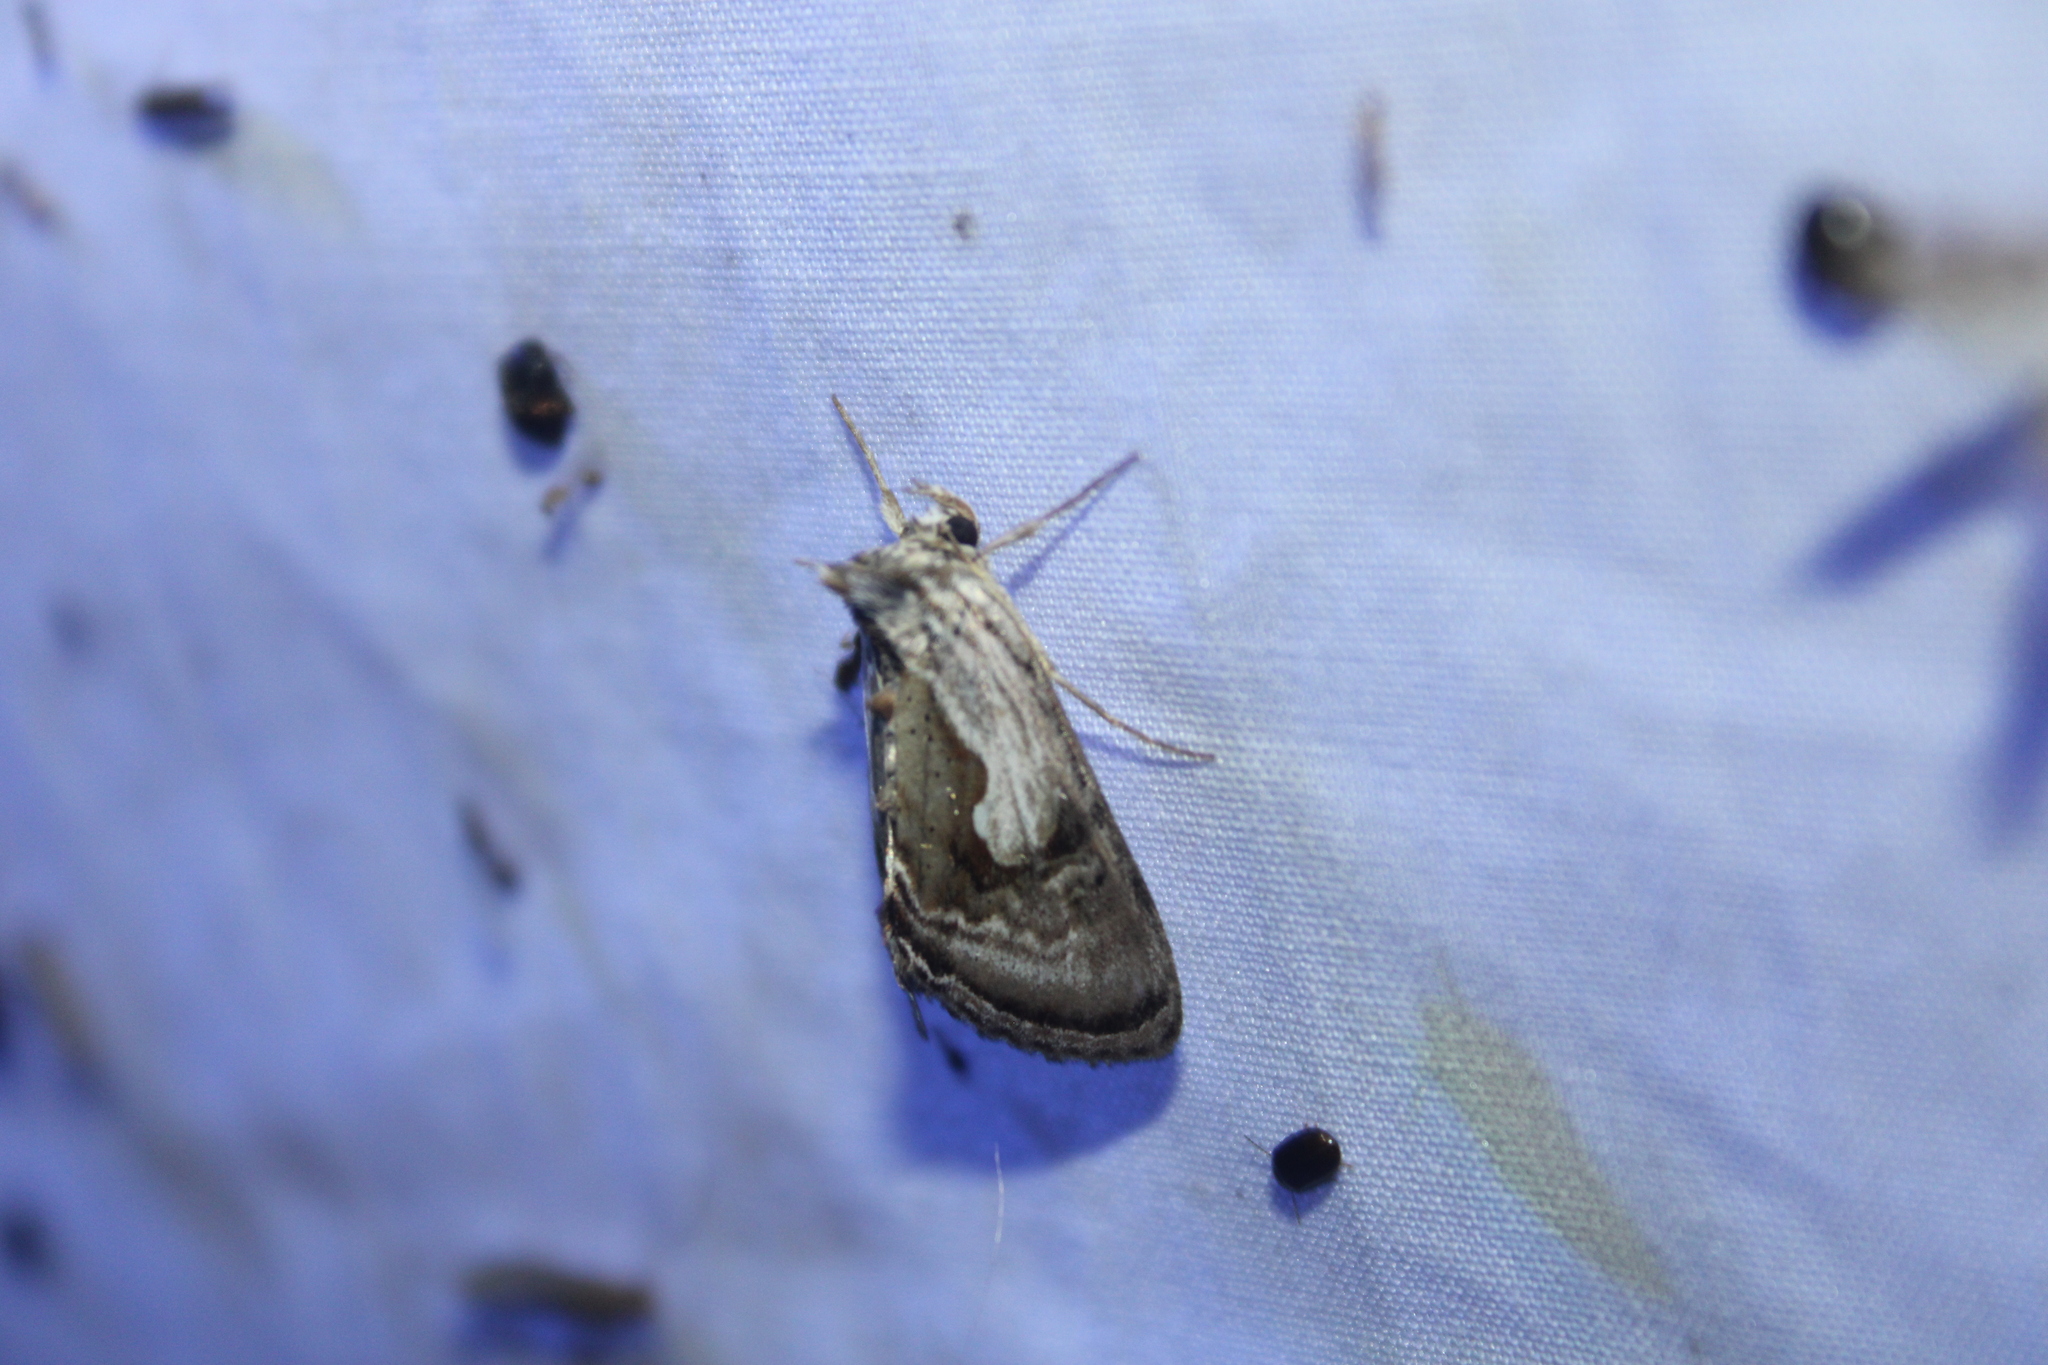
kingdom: Animalia
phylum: Arthropoda
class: Insecta
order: Lepidoptera
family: Noctuidae
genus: Chrysanympha
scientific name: Chrysanympha formosa
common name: Formosa looper moth
